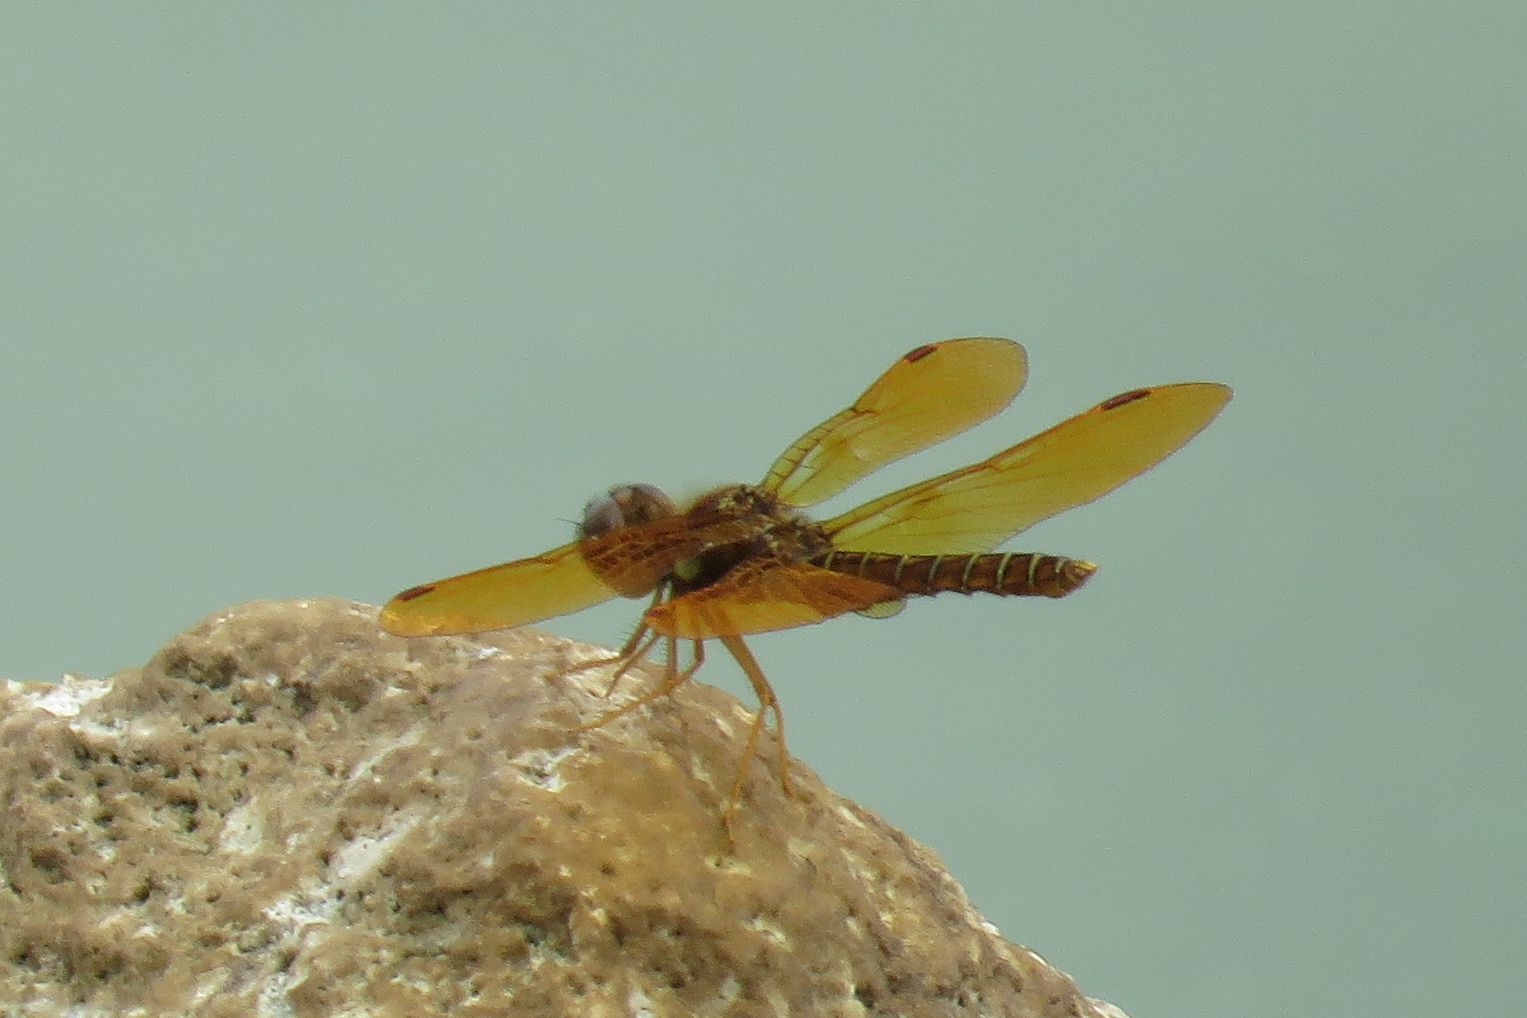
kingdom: Animalia
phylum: Arthropoda
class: Insecta
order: Odonata
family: Libellulidae
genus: Perithemis
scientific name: Perithemis tenera
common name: Eastern amberwing
